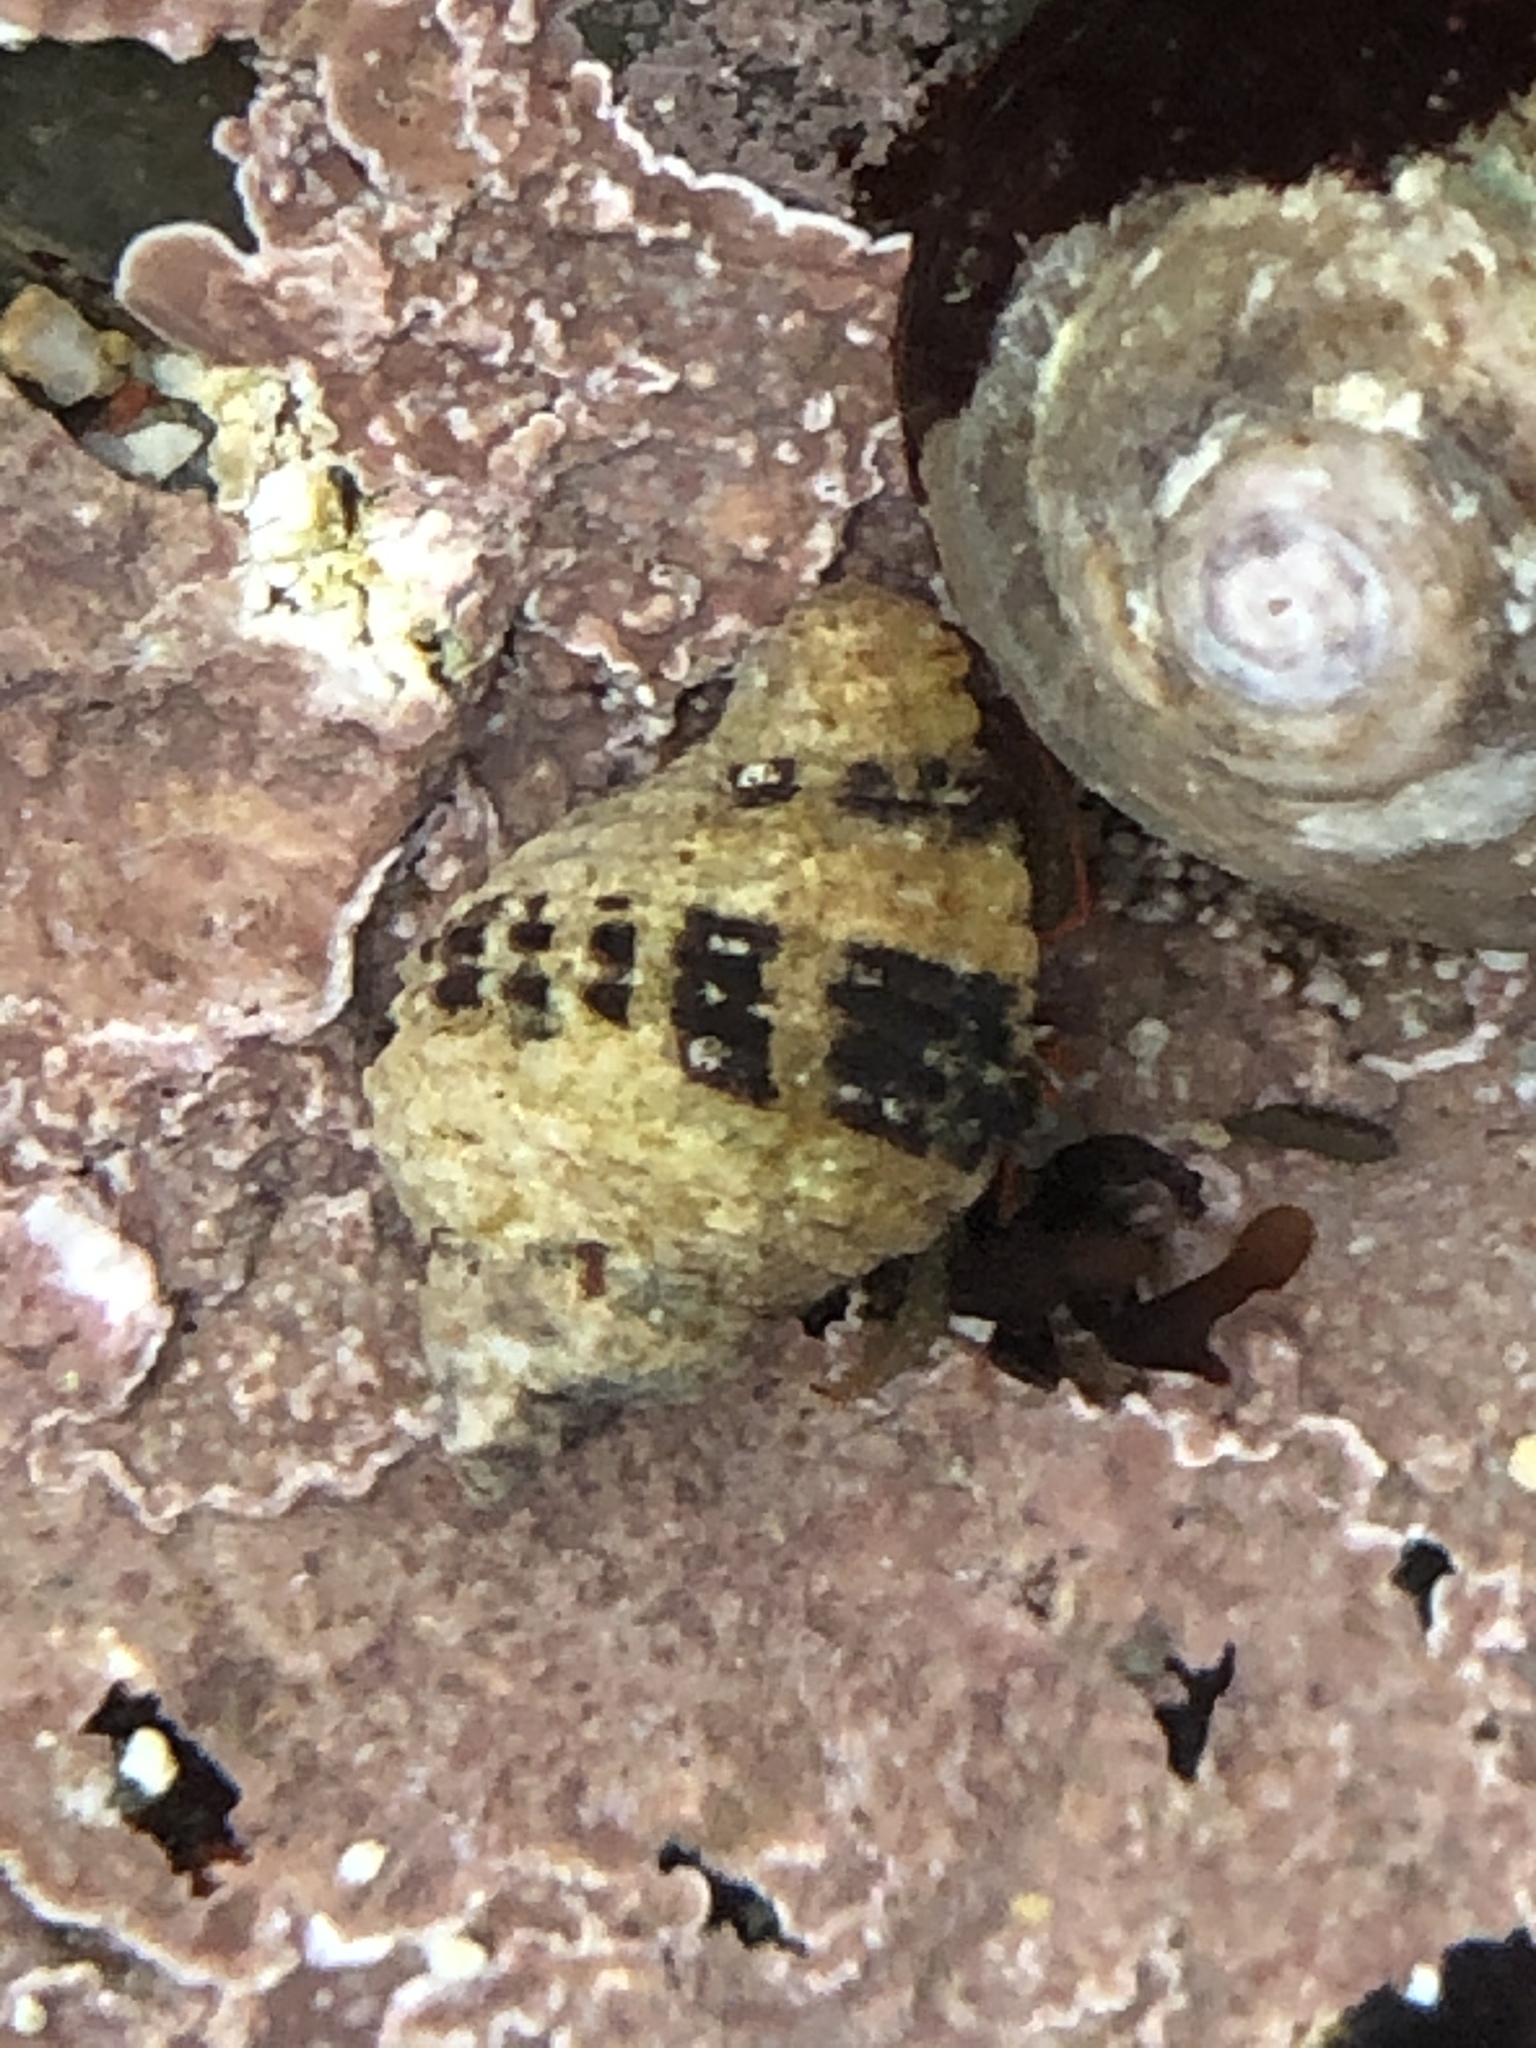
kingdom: Animalia
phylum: Mollusca
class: Gastropoda
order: Neogastropoda
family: Muricidae
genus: Paciocinebrina
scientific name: Paciocinebrina circumtexta
